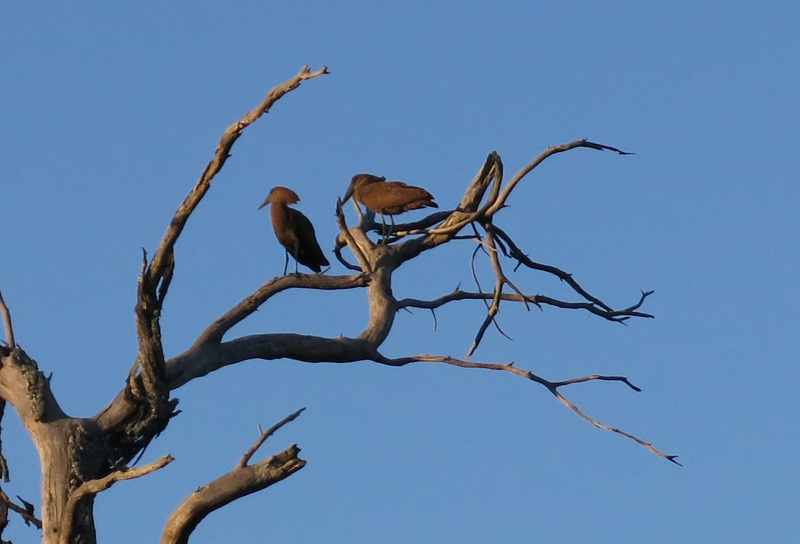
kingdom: Animalia
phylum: Chordata
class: Aves
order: Pelecaniformes
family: Scopidae
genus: Scopus
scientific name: Scopus umbretta
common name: Hamerkop
